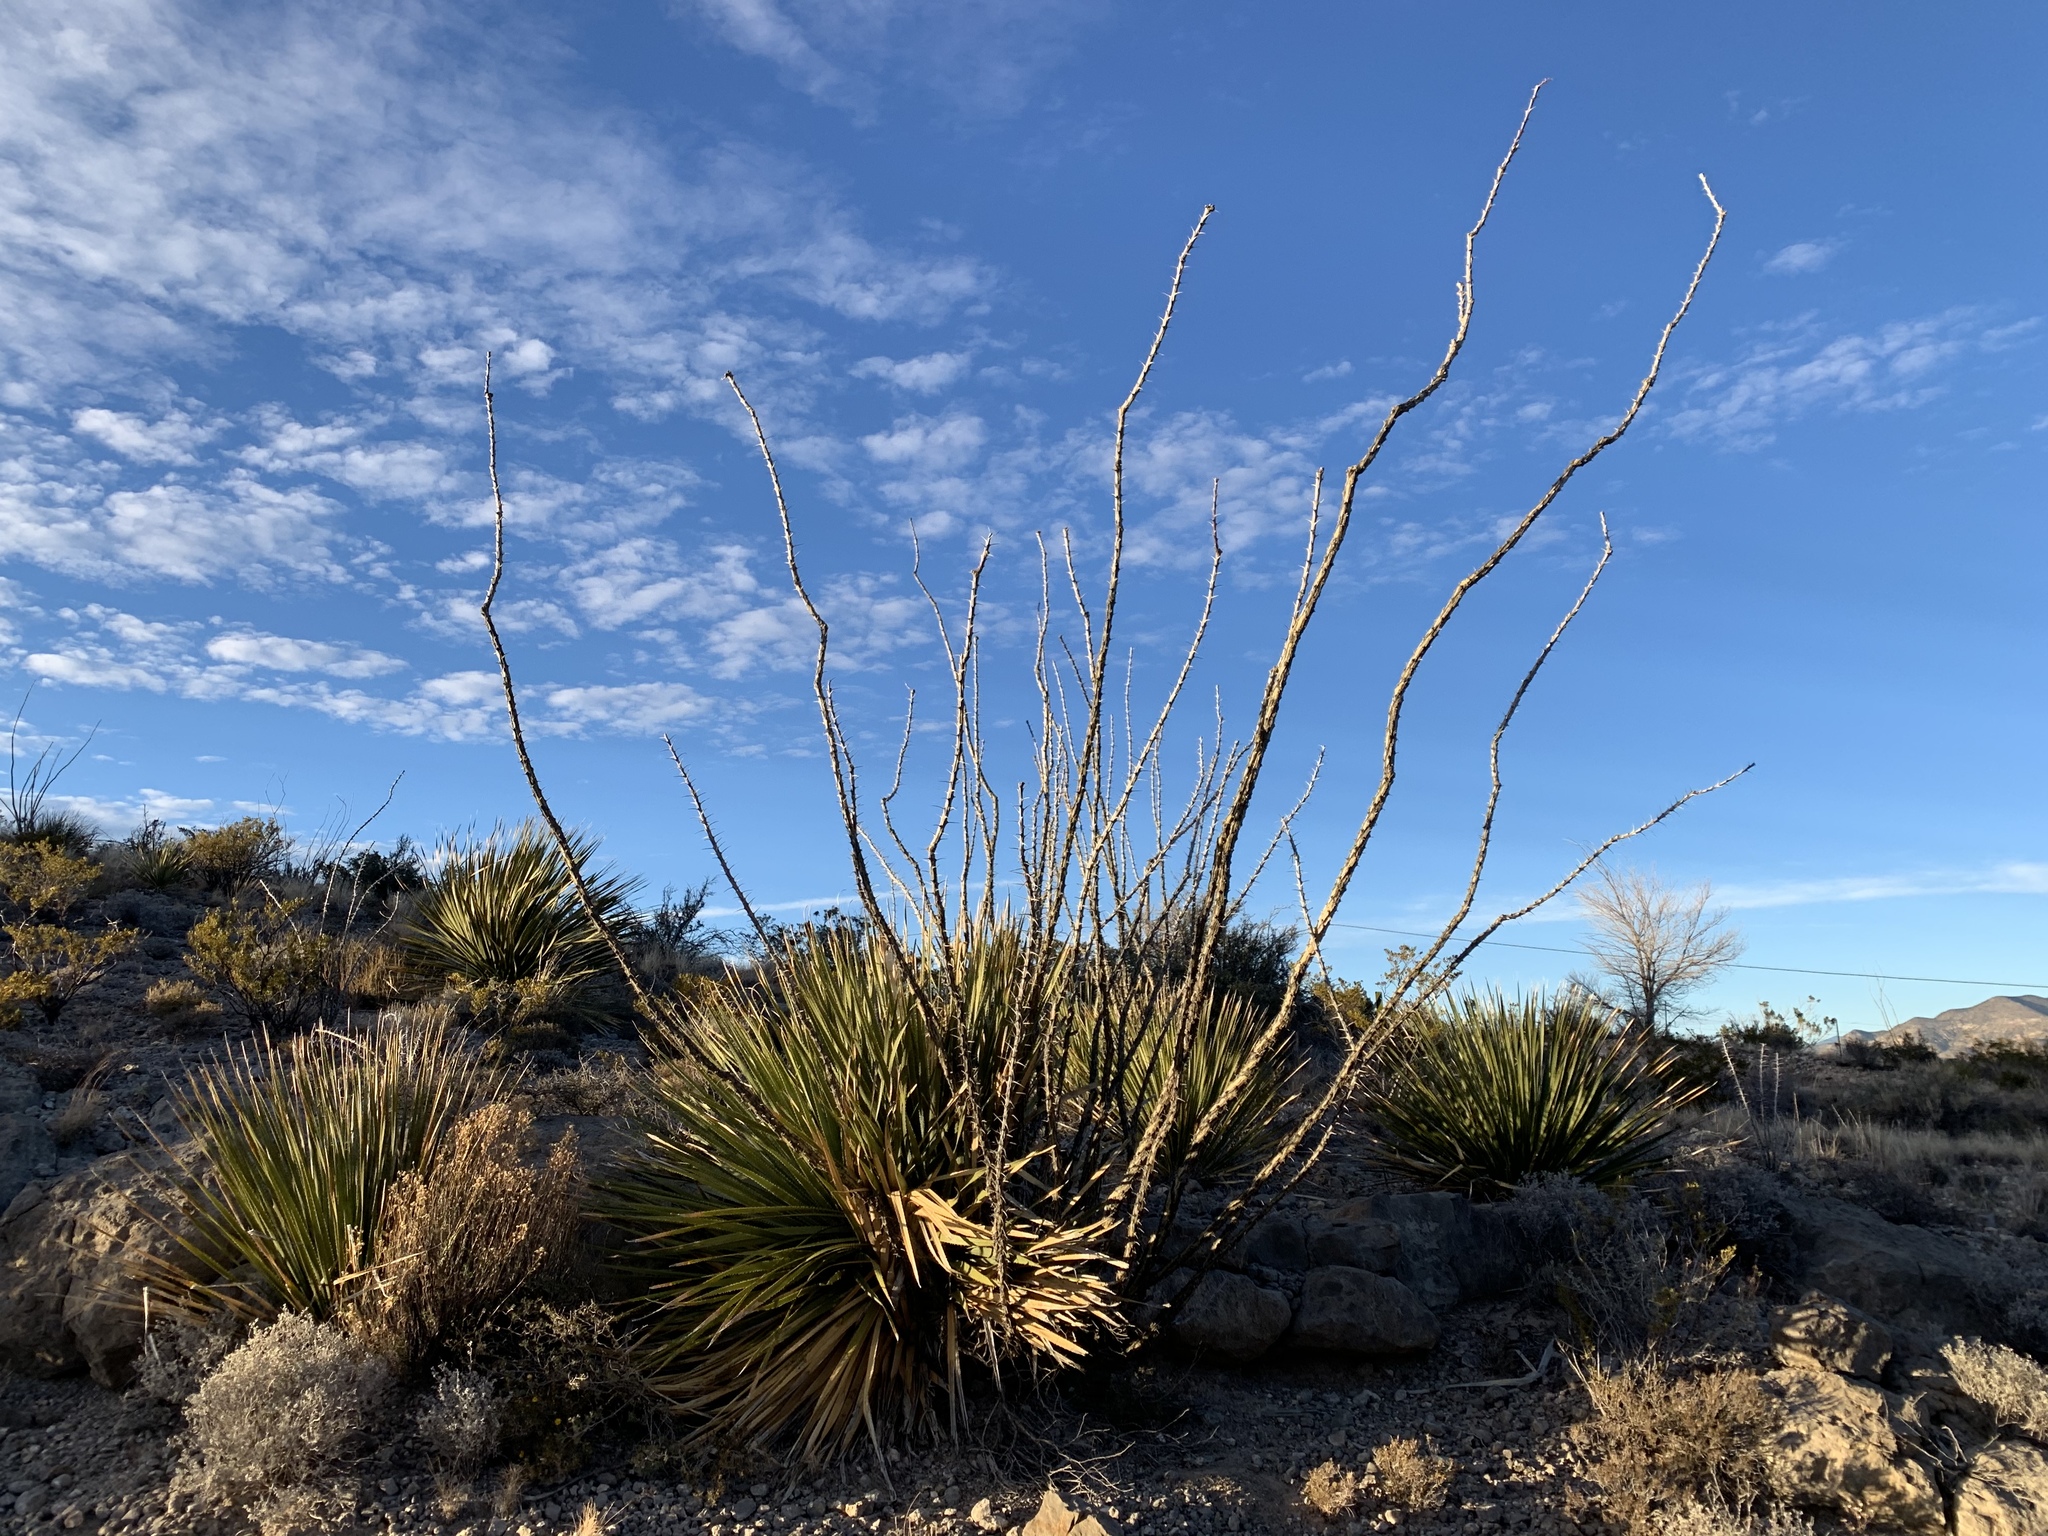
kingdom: Plantae
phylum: Tracheophyta
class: Magnoliopsida
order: Ericales
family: Fouquieriaceae
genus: Fouquieria
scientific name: Fouquieria splendens
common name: Vine-cactus
